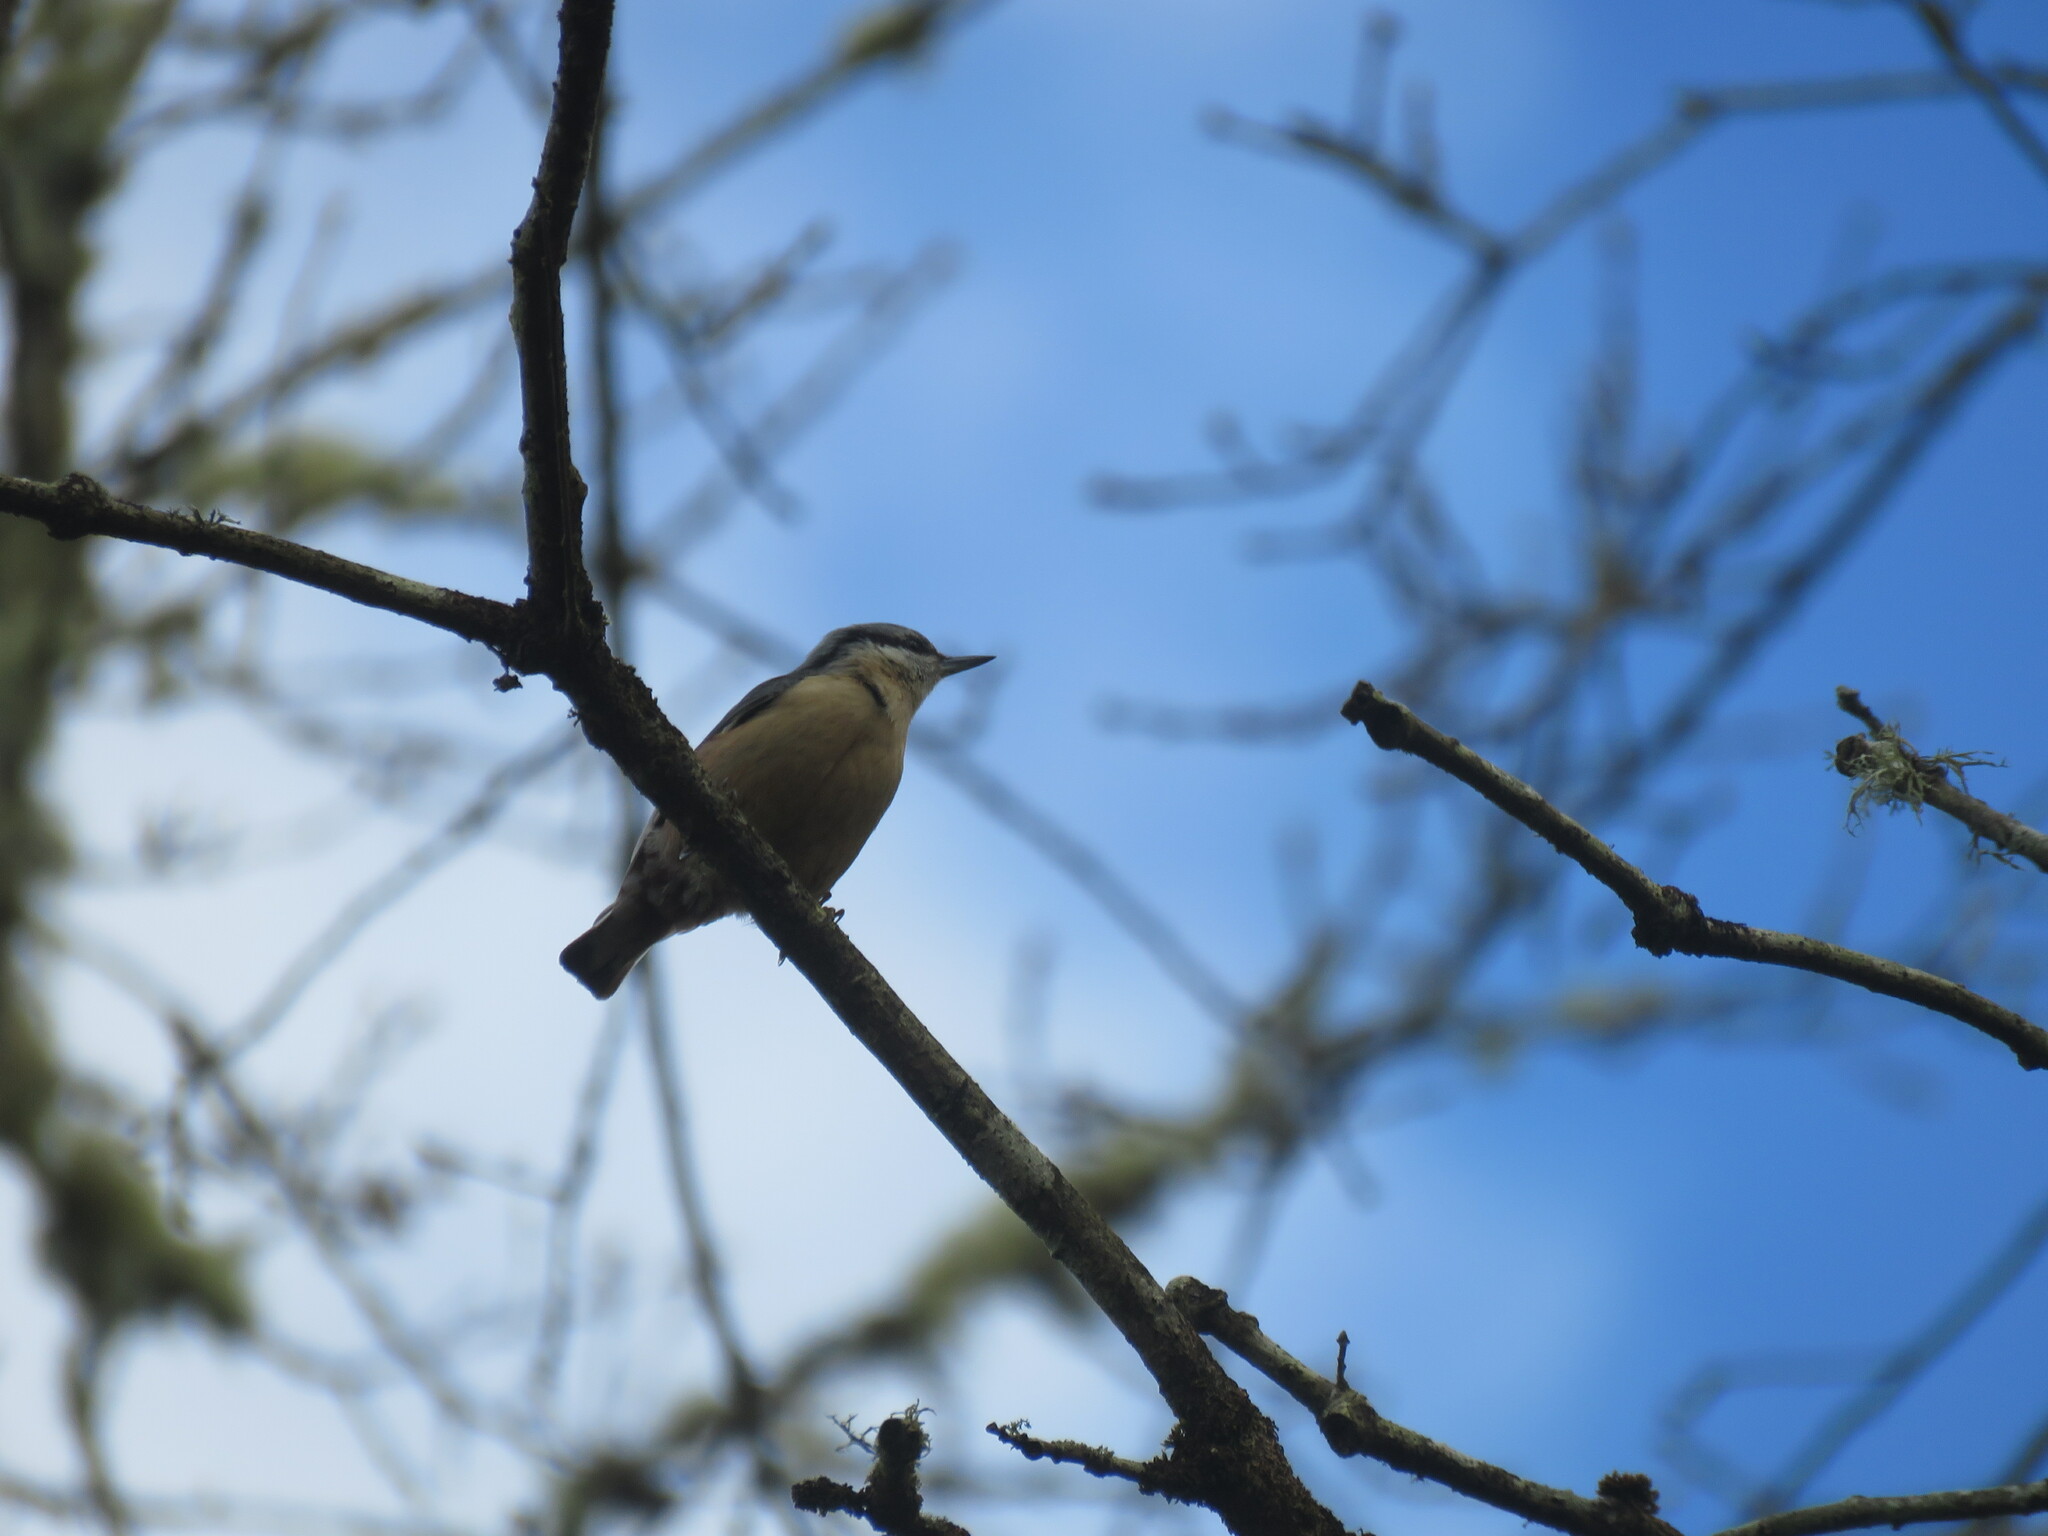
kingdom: Animalia
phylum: Chordata
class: Aves
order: Passeriformes
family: Sittidae
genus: Sitta
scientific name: Sitta europaea
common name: Eurasian nuthatch
